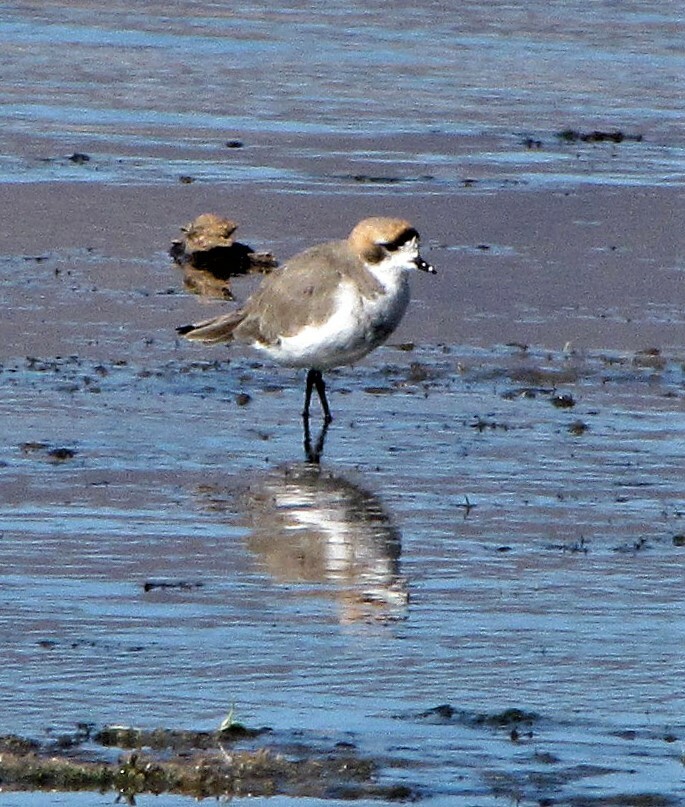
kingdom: Animalia
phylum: Chordata
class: Aves
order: Charadriiformes
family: Charadriidae
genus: Anarhynchus
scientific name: Anarhynchus
